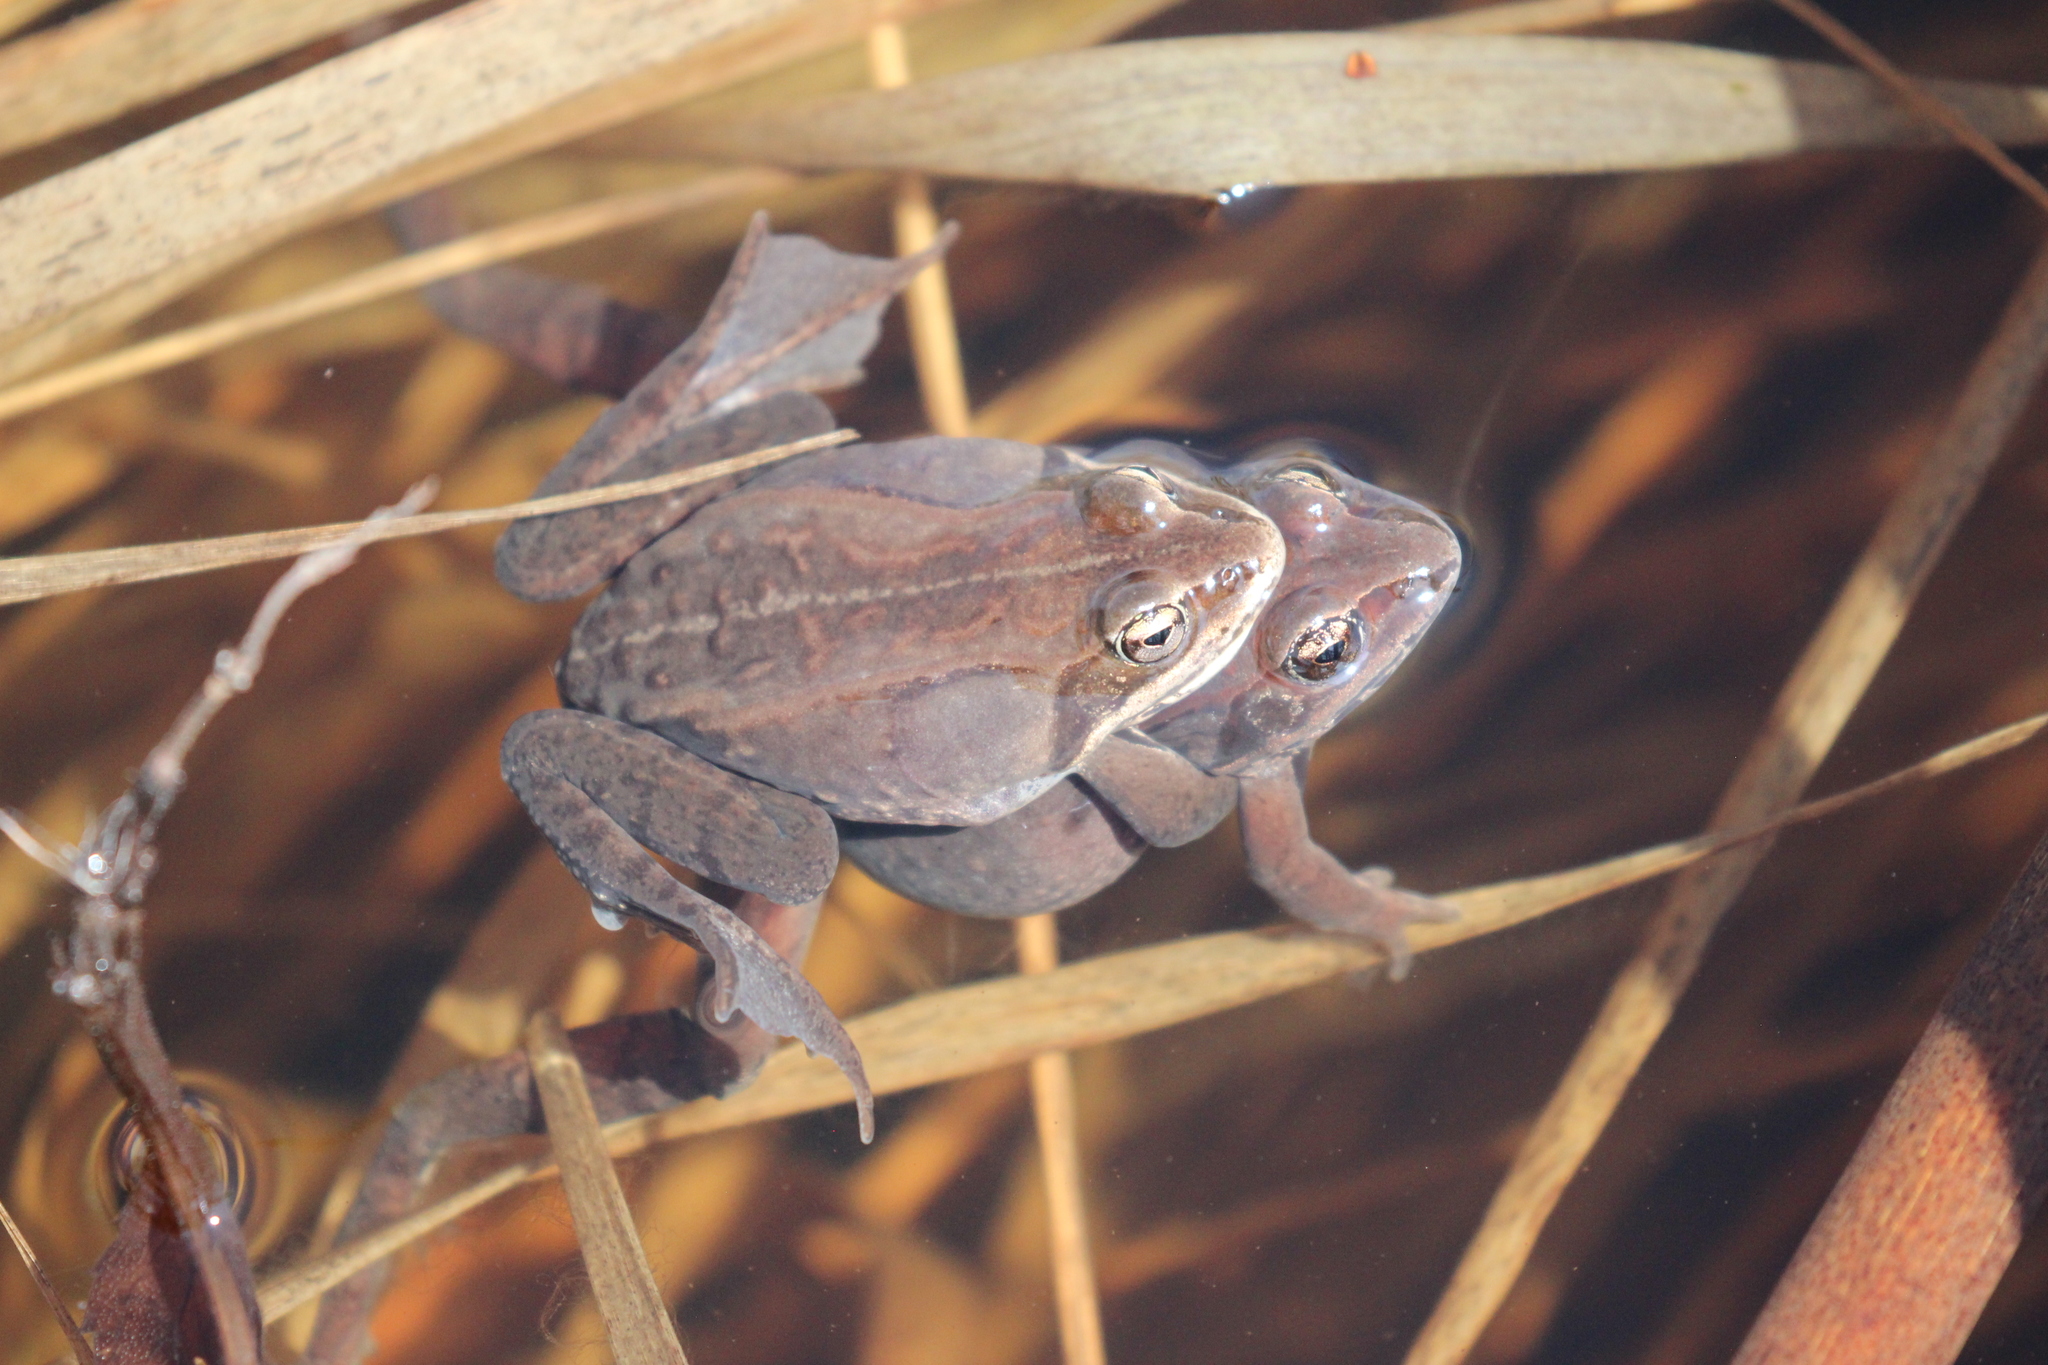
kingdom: Animalia
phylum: Chordata
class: Amphibia
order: Anura
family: Ranidae
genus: Lithobates
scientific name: Lithobates sylvaticus
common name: Wood frog
